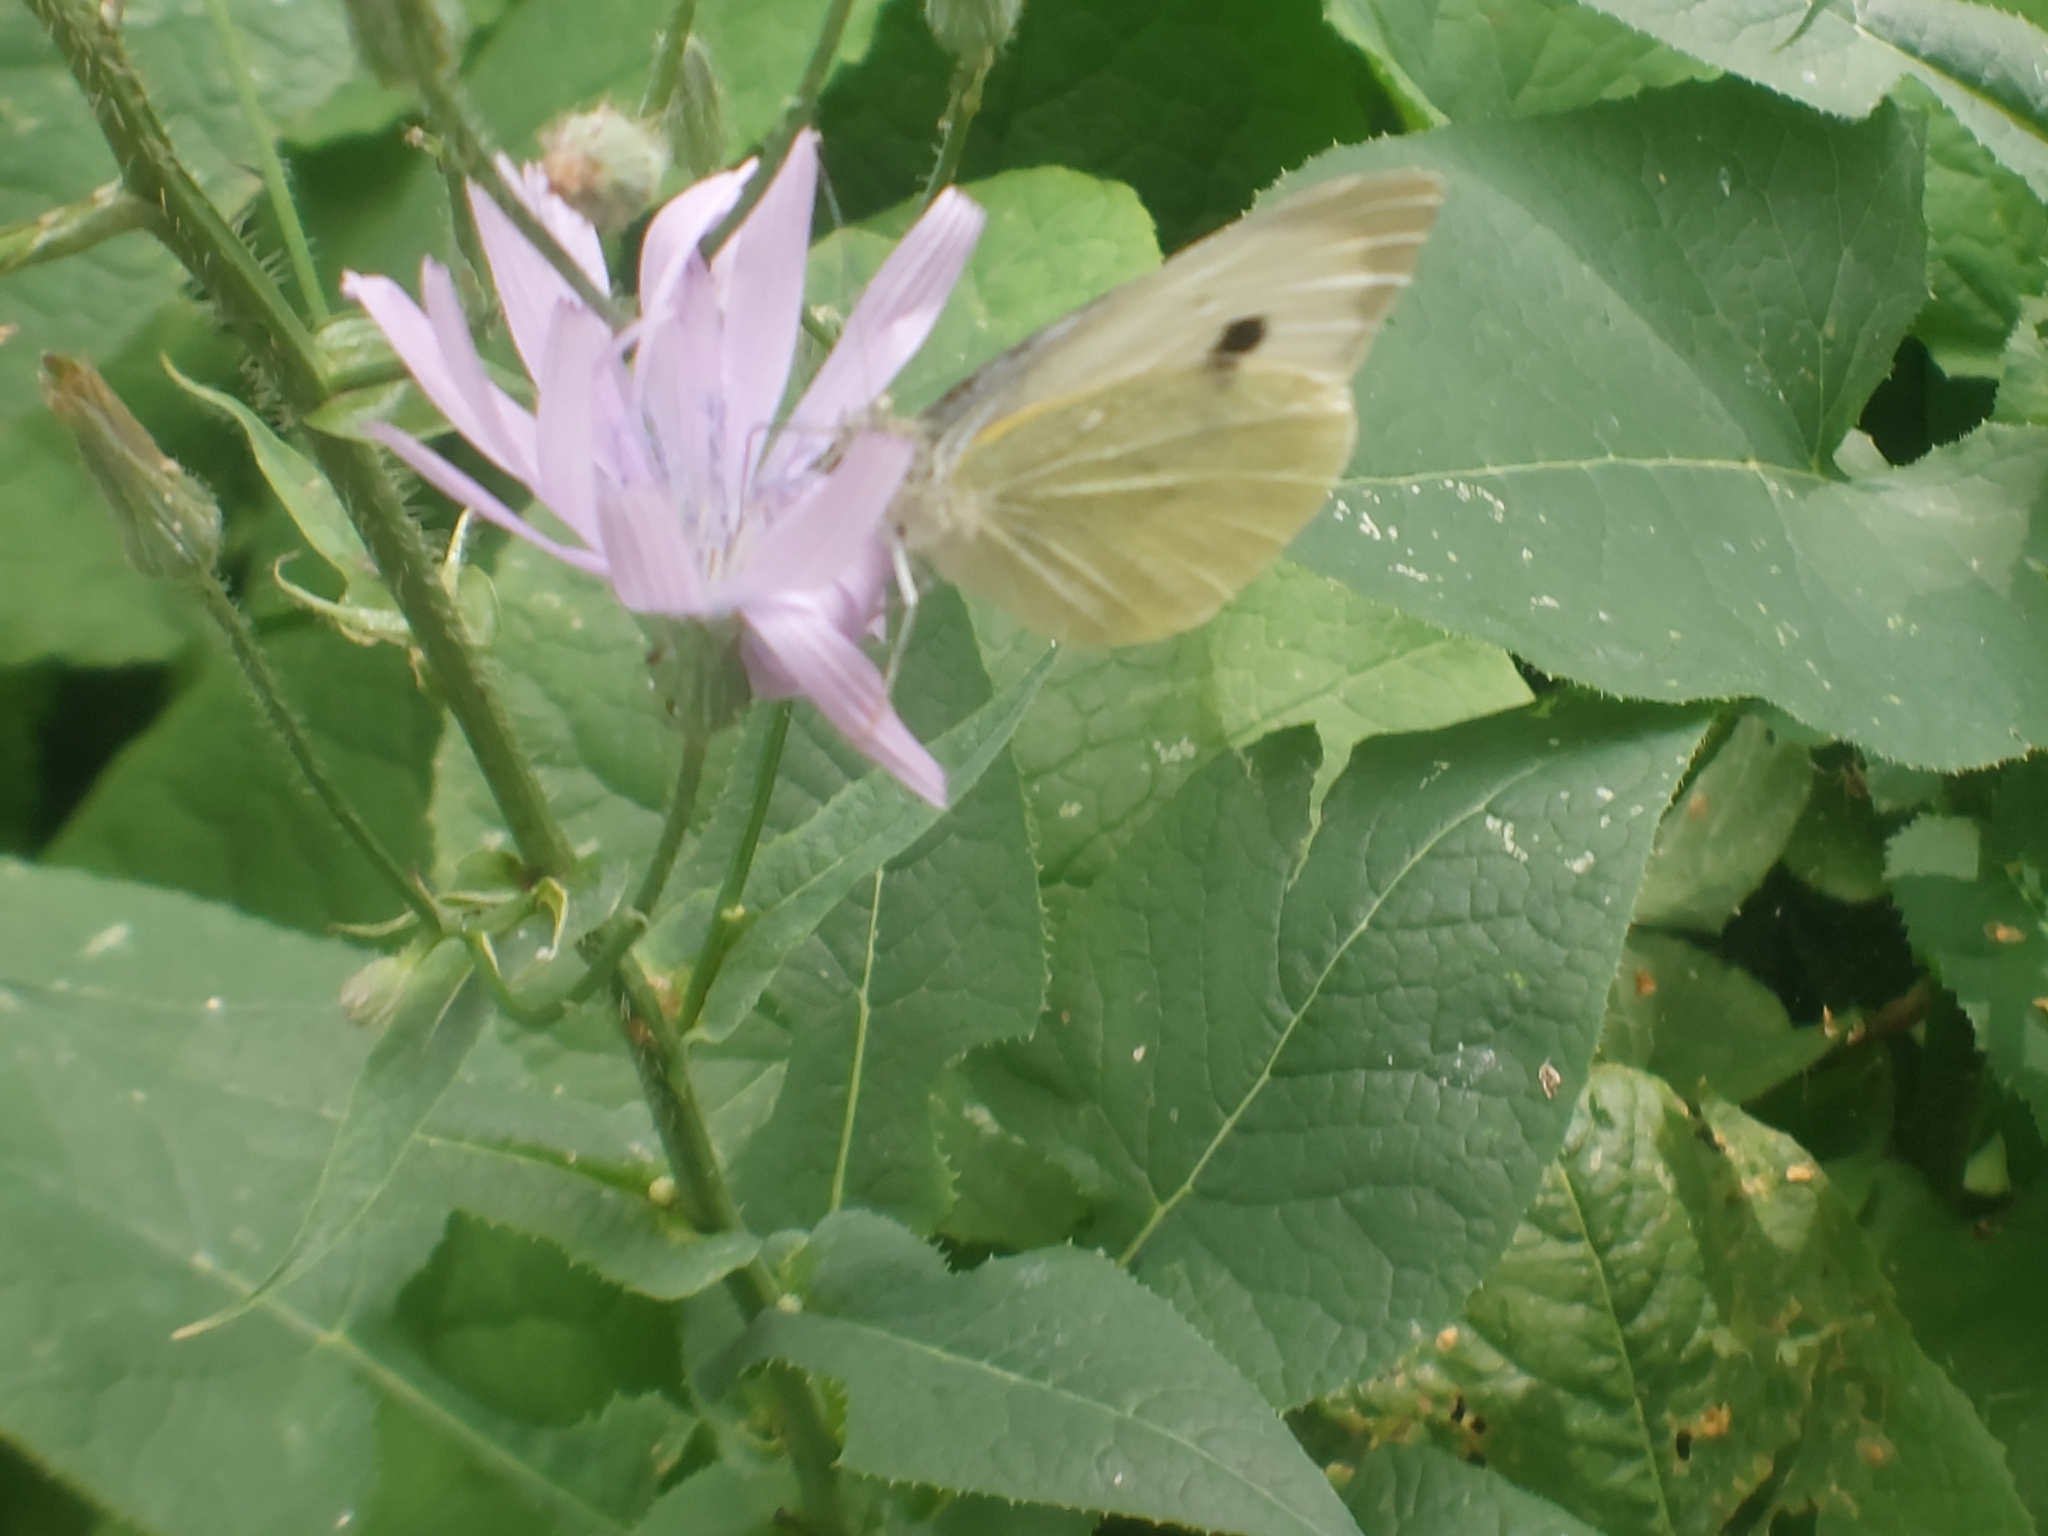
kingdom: Animalia
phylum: Arthropoda
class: Insecta
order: Lepidoptera
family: Pieridae
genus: Pieris
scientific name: Pieris brassicae
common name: Large white
